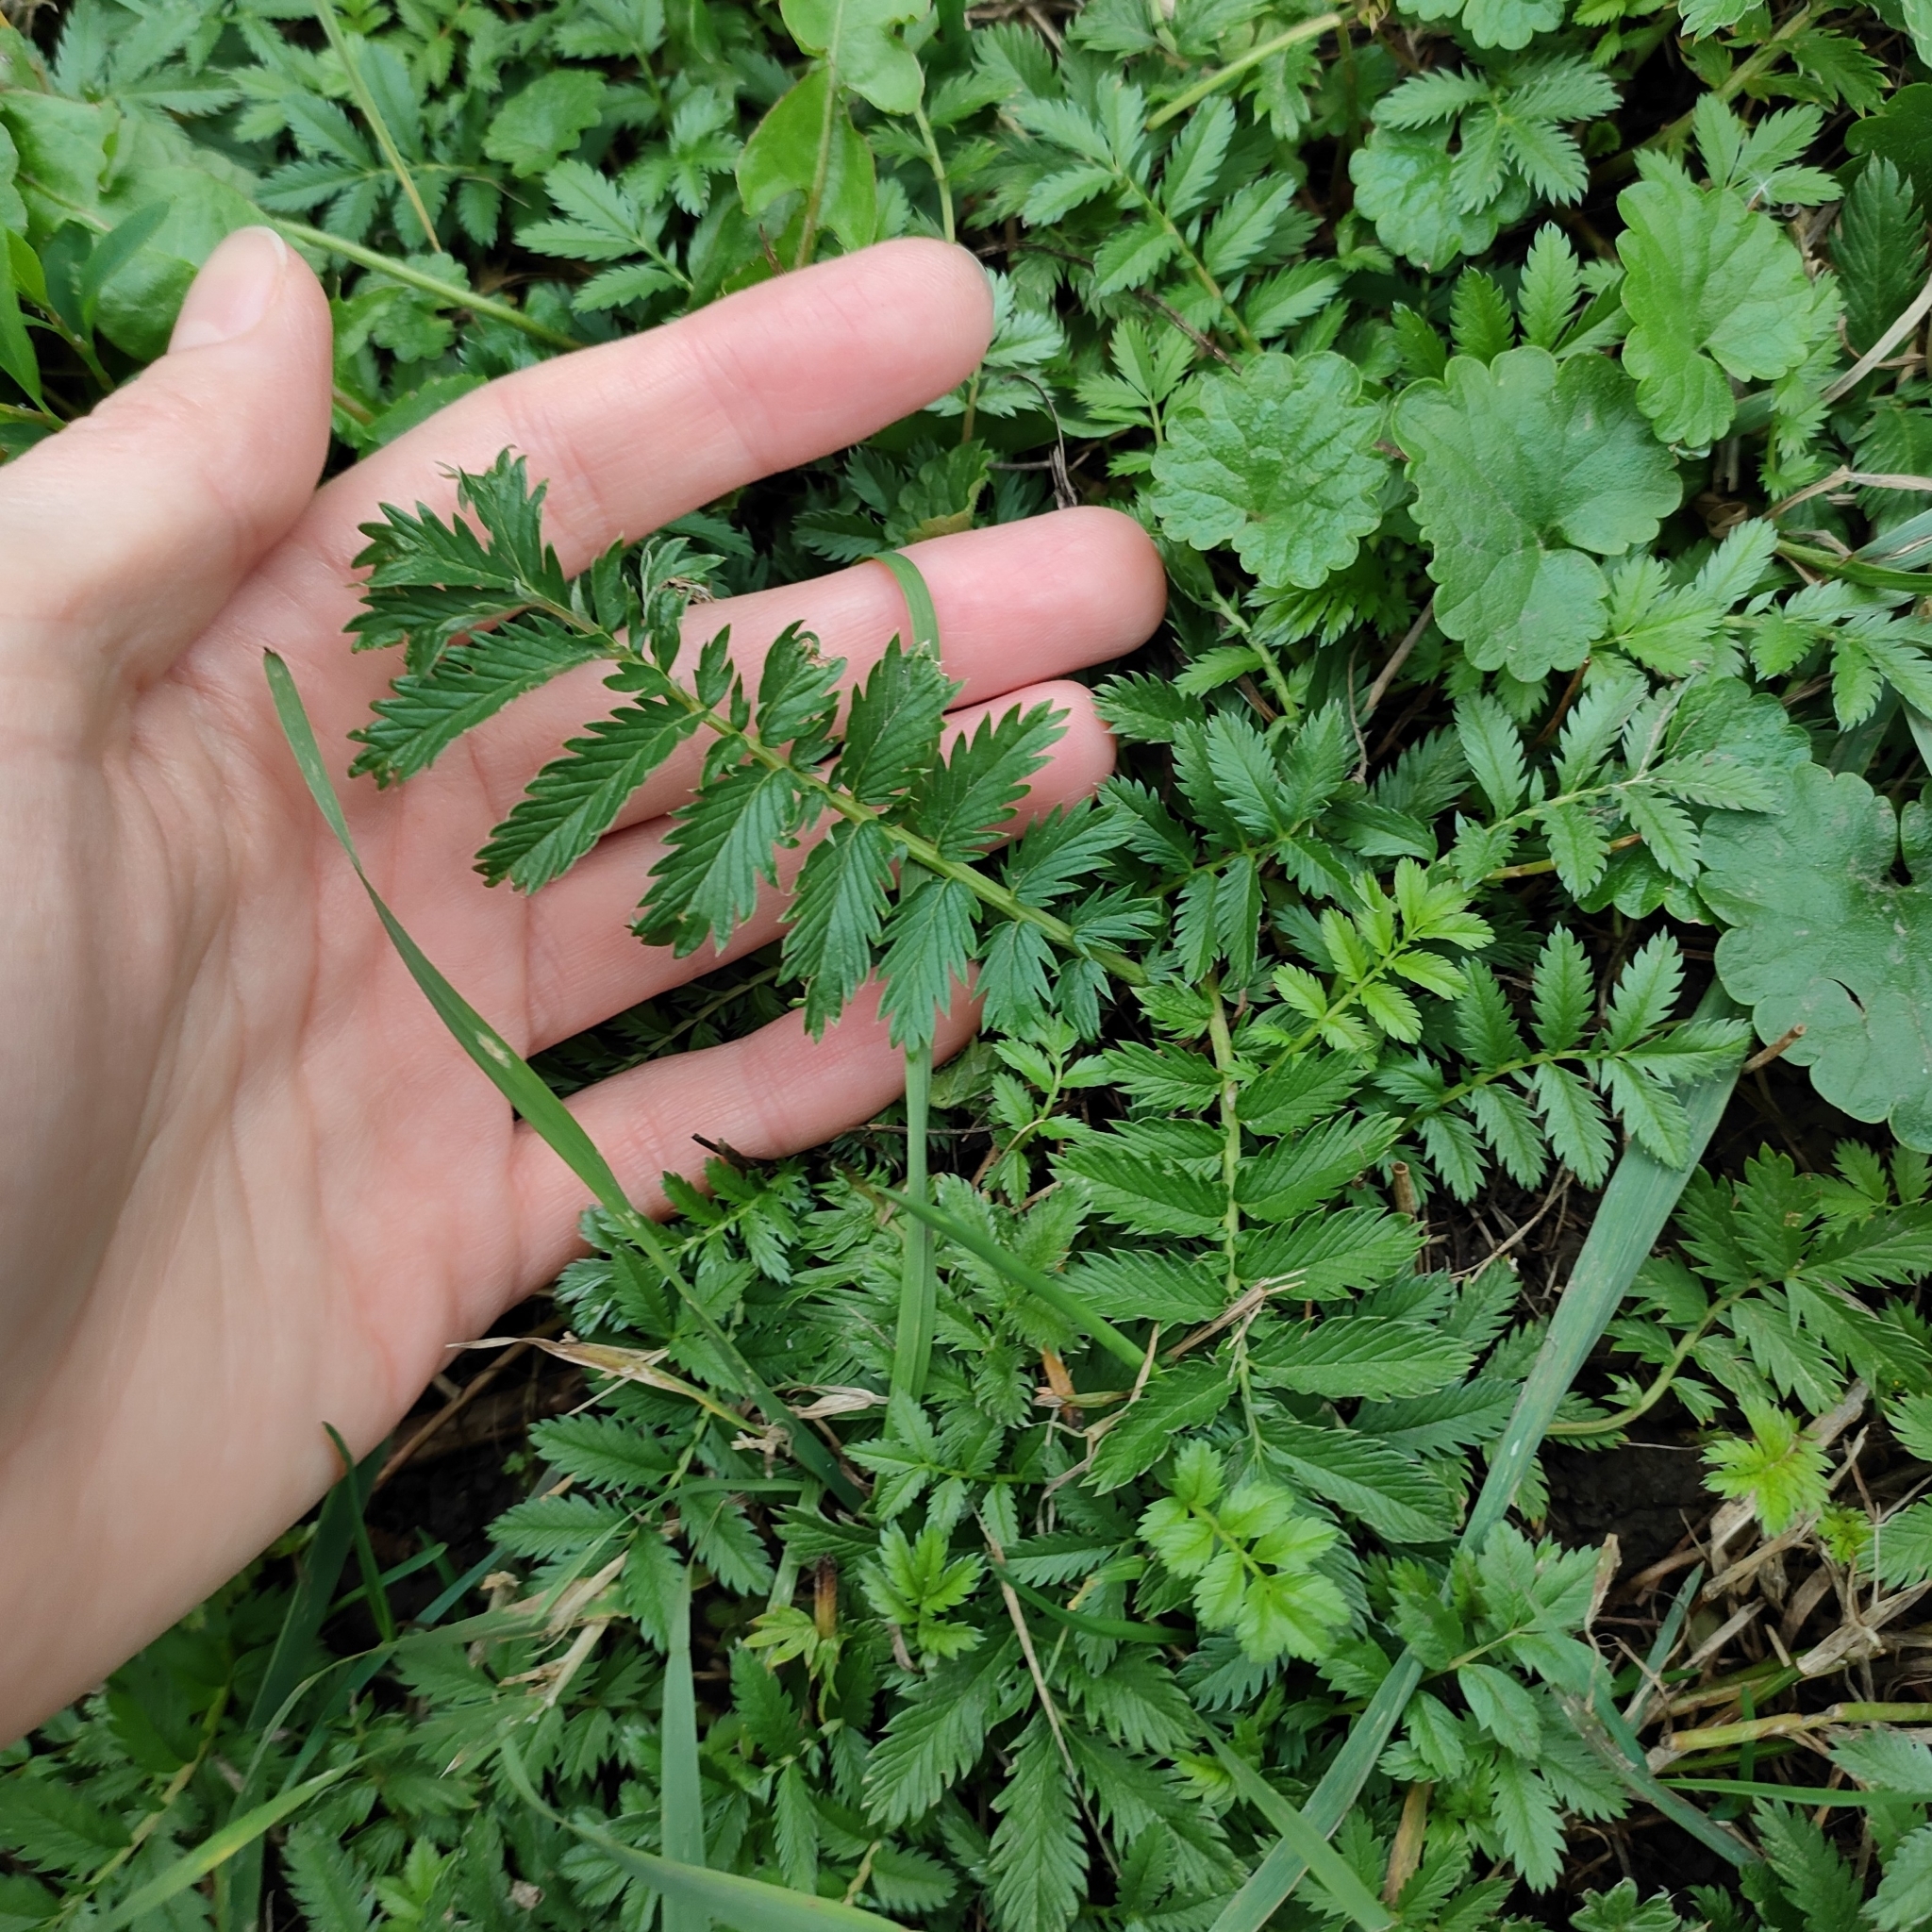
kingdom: Plantae
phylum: Tracheophyta
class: Magnoliopsida
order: Rosales
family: Rosaceae
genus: Argentina
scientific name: Argentina anserina
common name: Common silverweed
